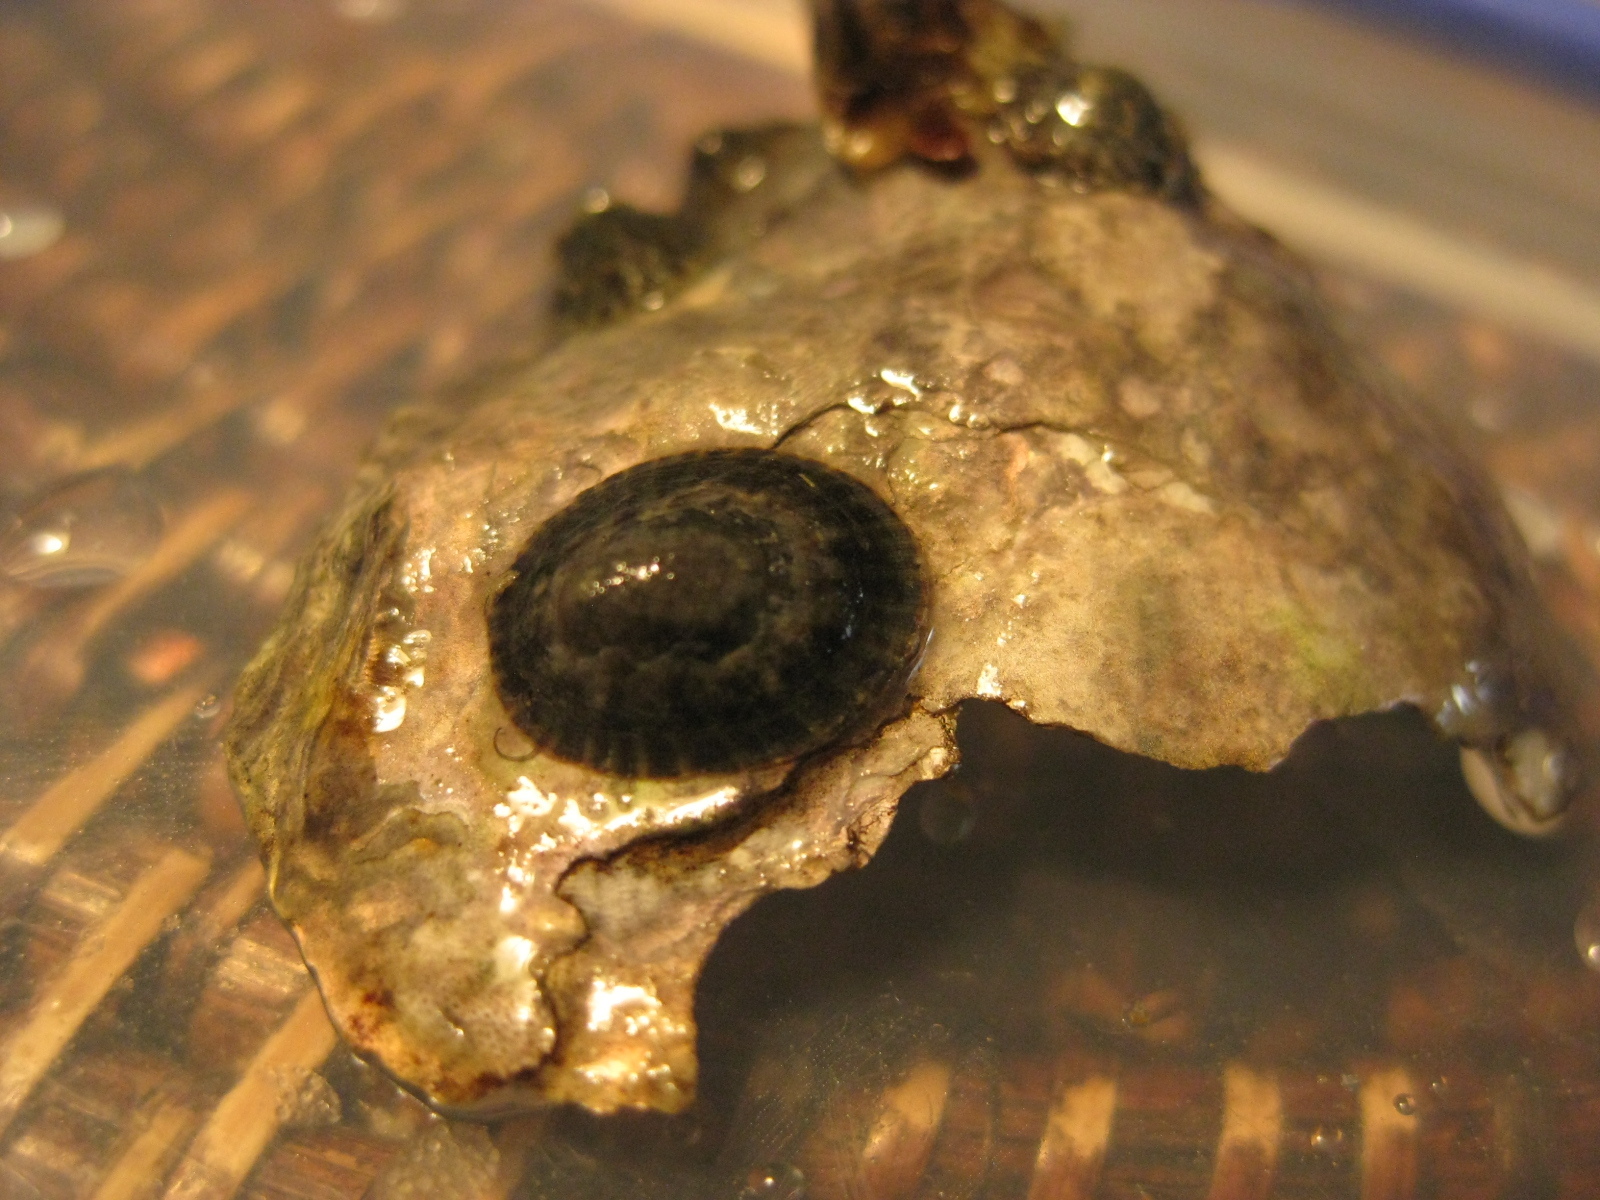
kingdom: Animalia
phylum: Mollusca
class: Gastropoda
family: Lottiidae
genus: Notoacmea
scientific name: Notoacmea potae
